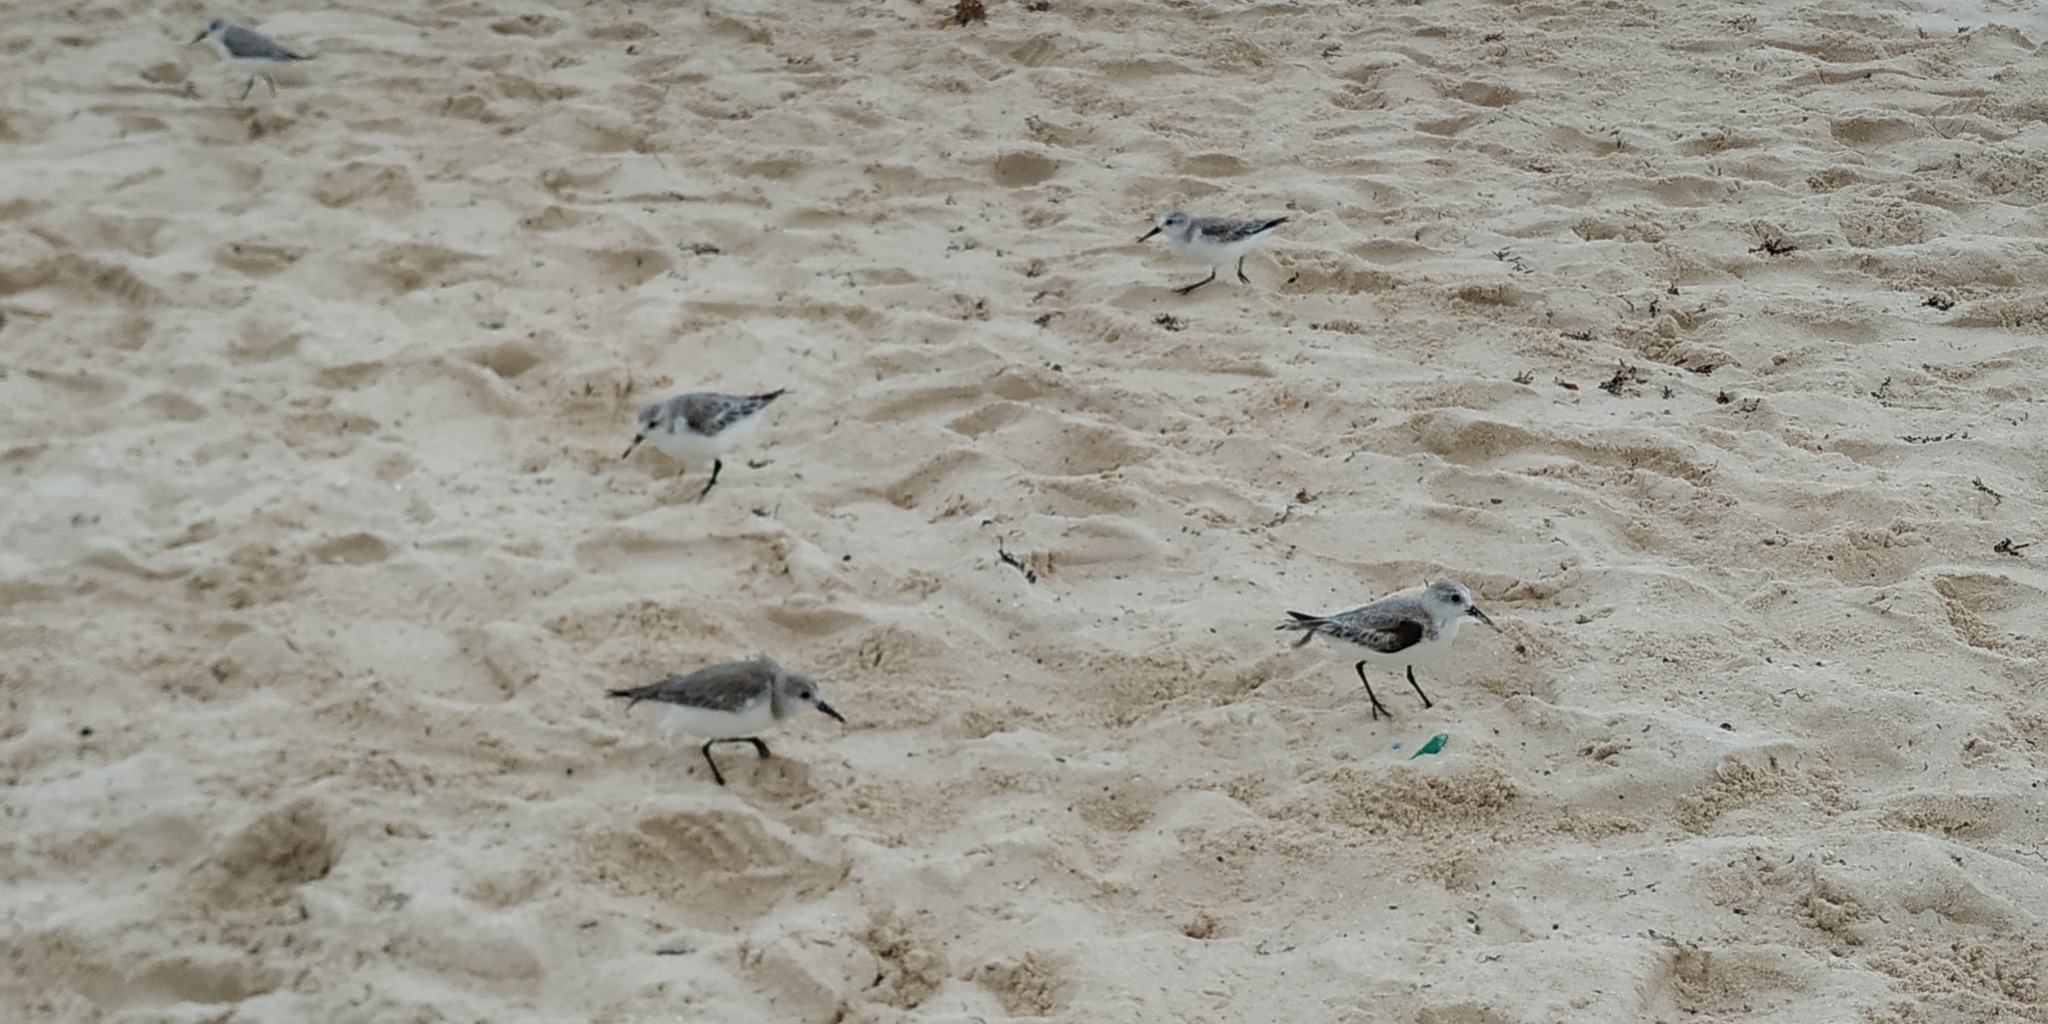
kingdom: Animalia
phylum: Chordata
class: Aves
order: Charadriiformes
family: Scolopacidae
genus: Calidris
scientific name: Calidris alba
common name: Sanderling
